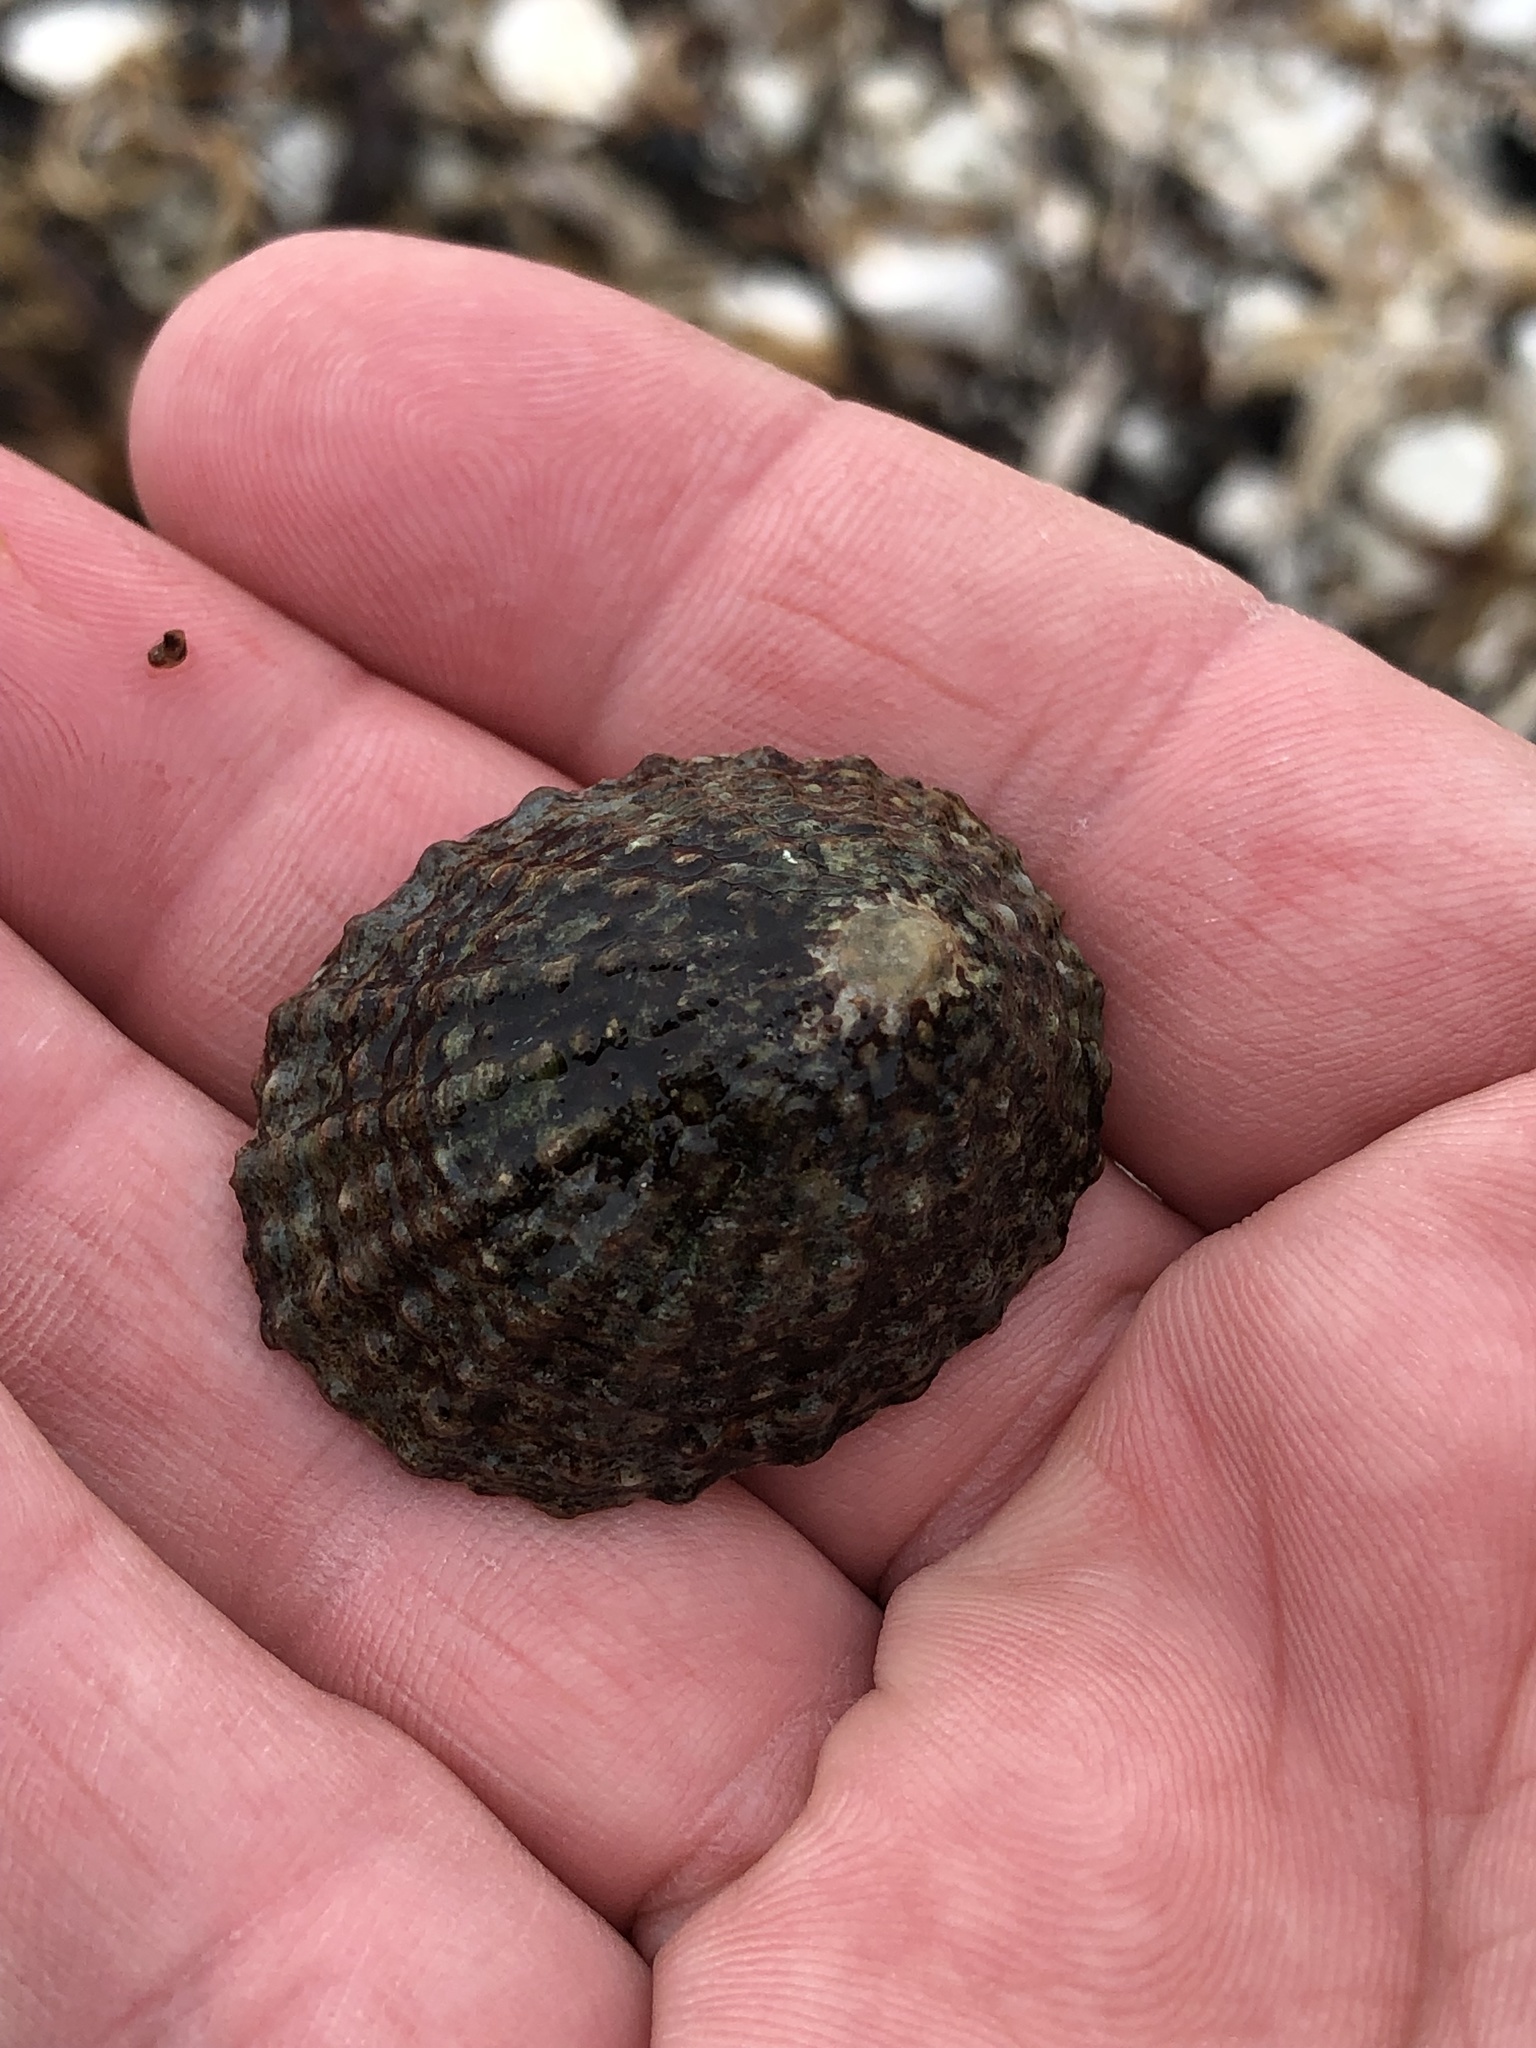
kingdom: Animalia
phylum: Mollusca
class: Gastropoda
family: Nacellidae
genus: Cellana
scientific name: Cellana denticulata
